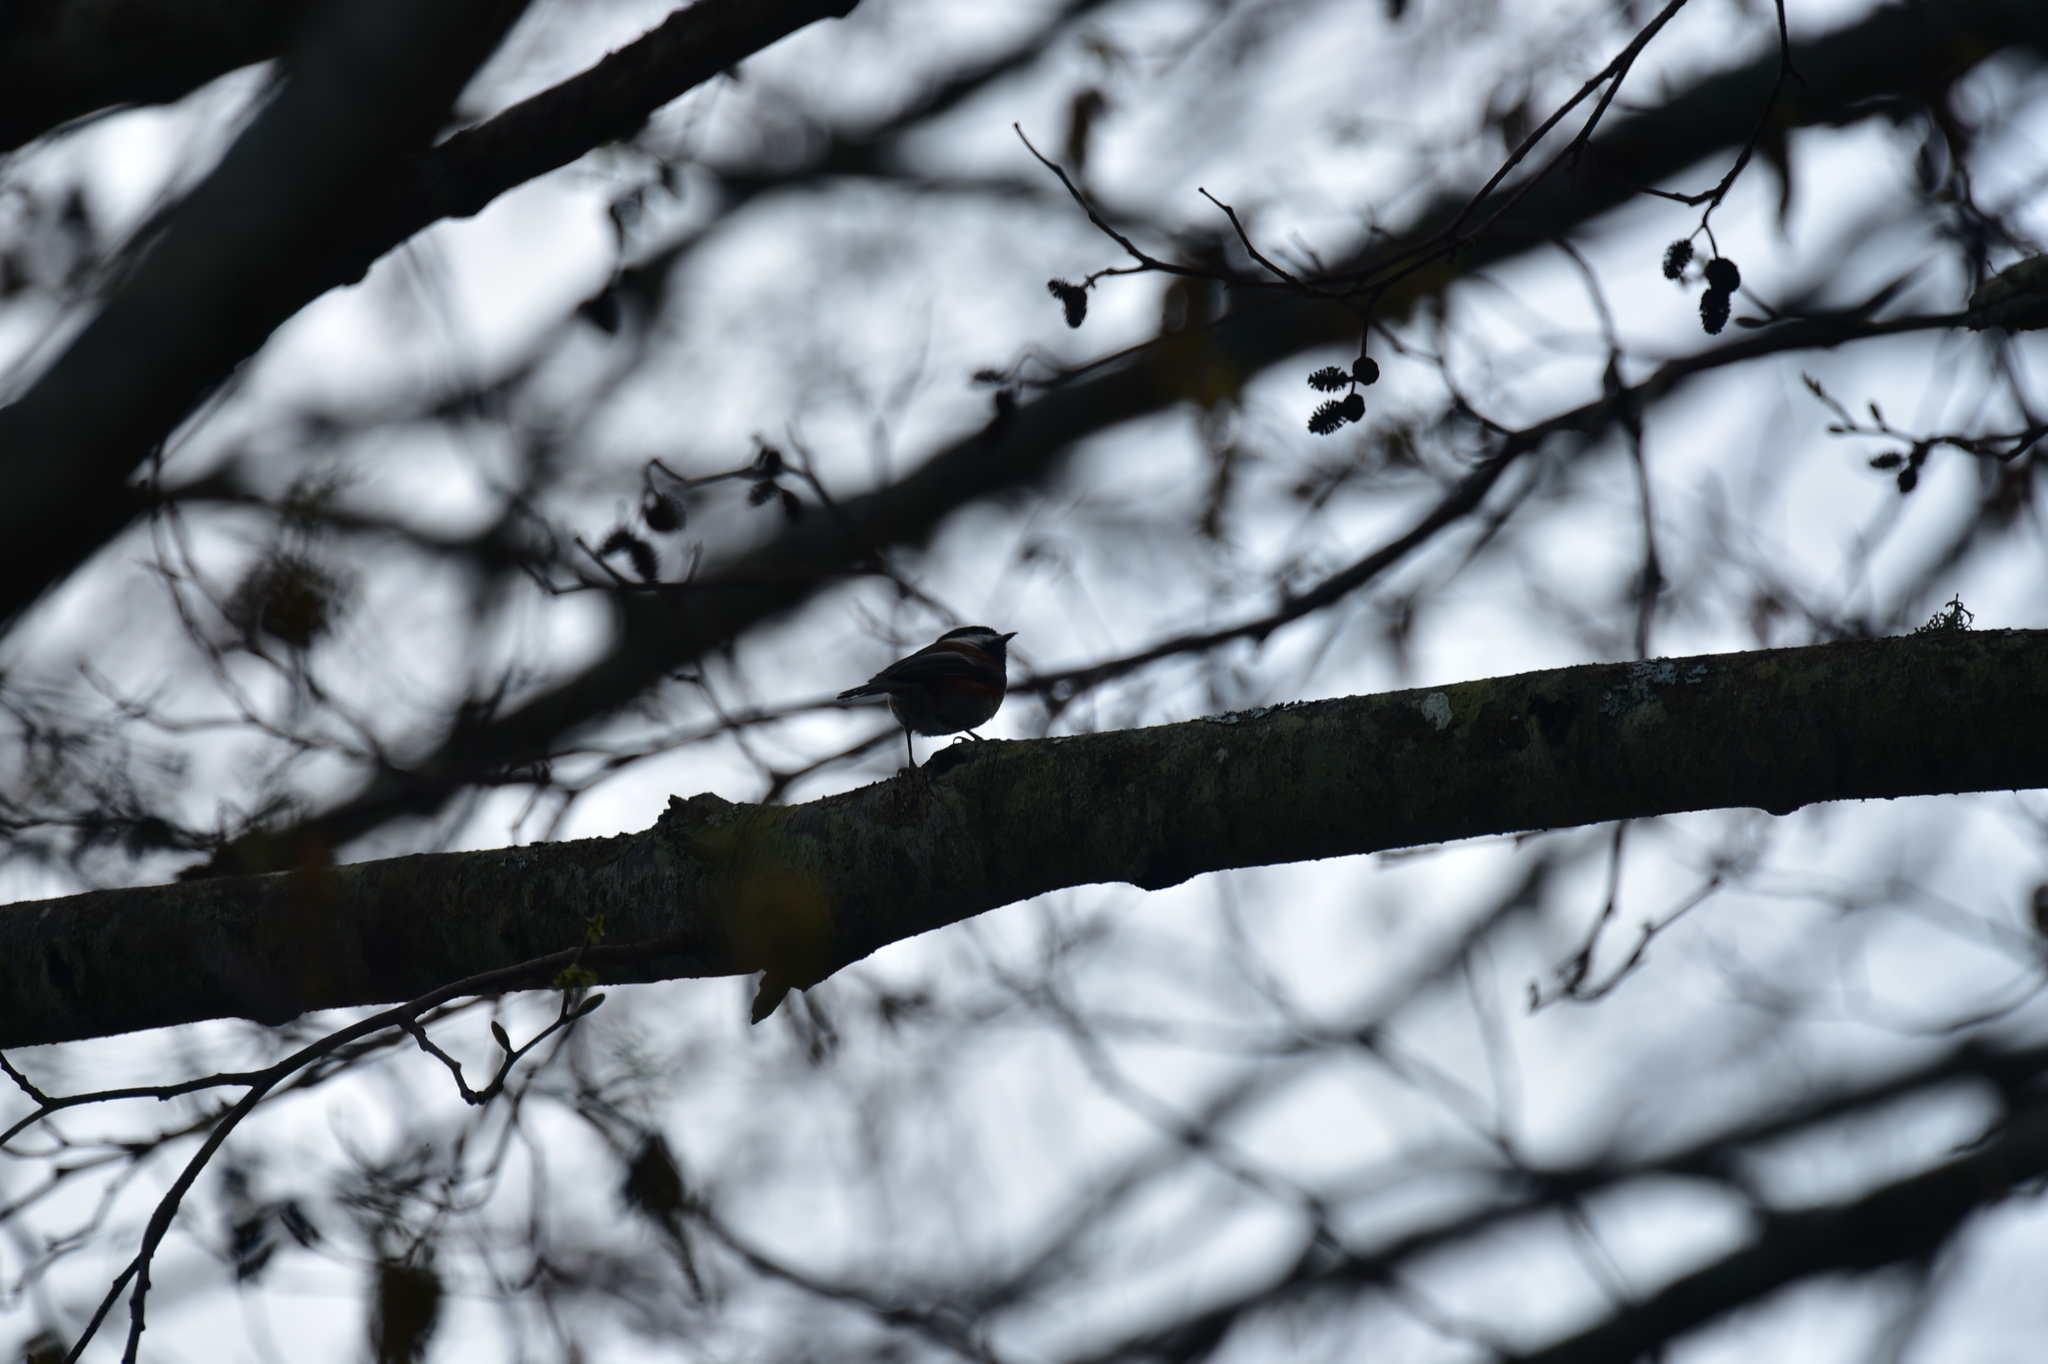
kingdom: Animalia
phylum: Chordata
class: Aves
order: Passeriformes
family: Paridae
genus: Poecile
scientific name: Poecile rufescens
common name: Chestnut-backed chickadee
